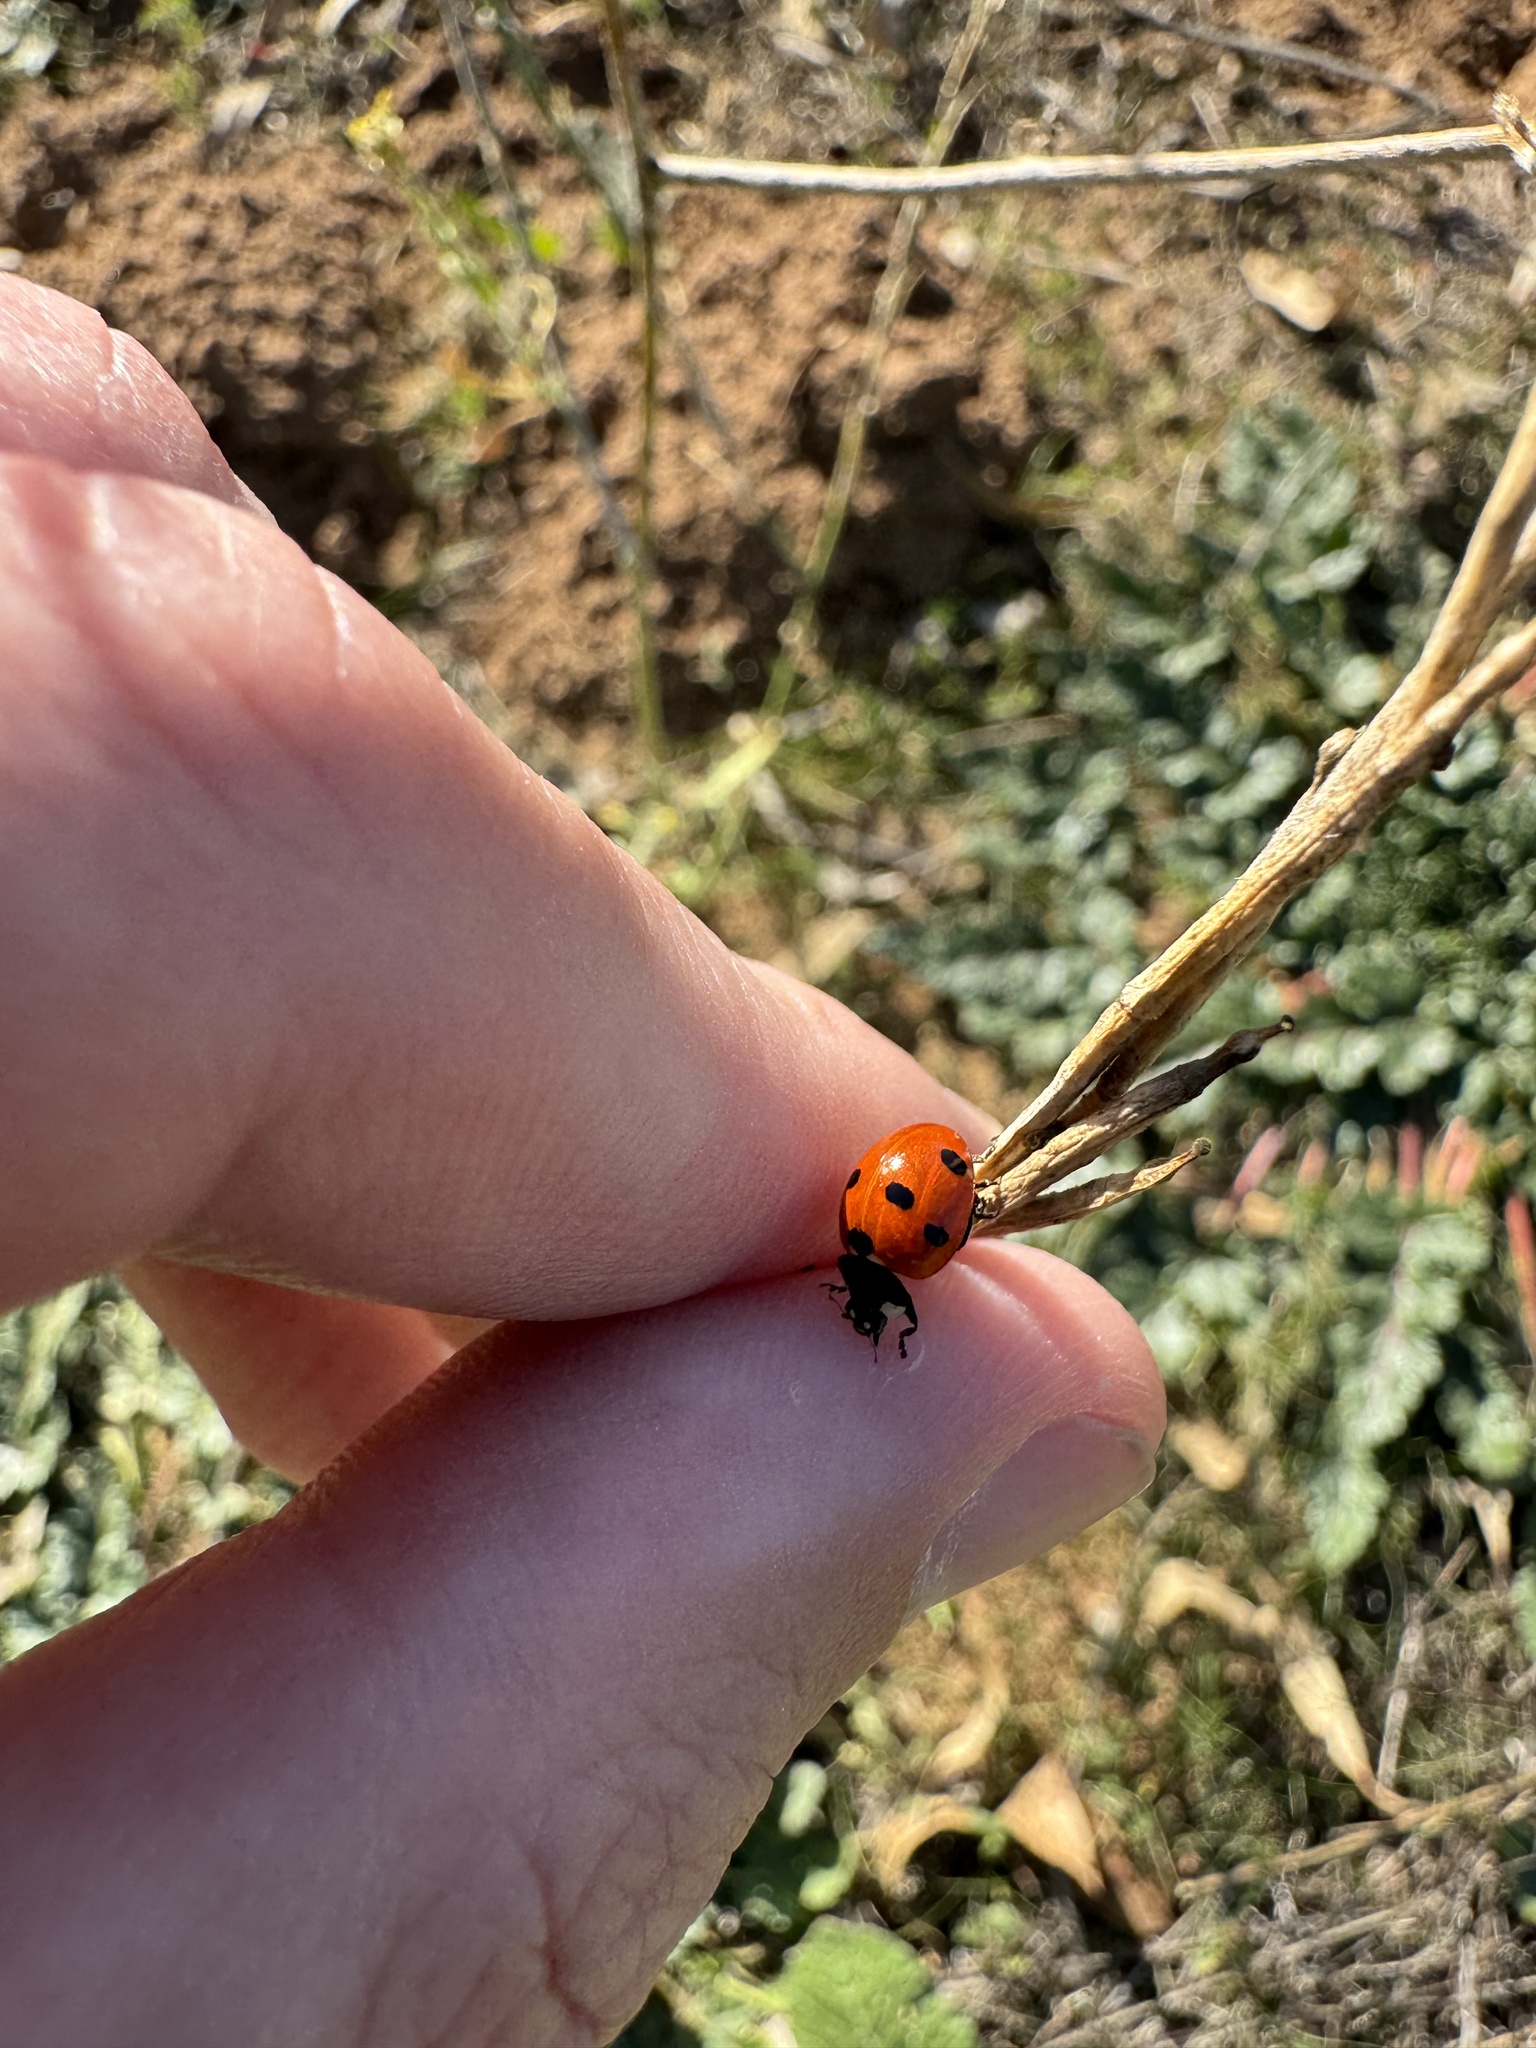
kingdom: Animalia
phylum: Arthropoda
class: Insecta
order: Coleoptera
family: Coccinellidae
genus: Coccinella
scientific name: Coccinella septempunctata
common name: Sevenspotted lady beetle
